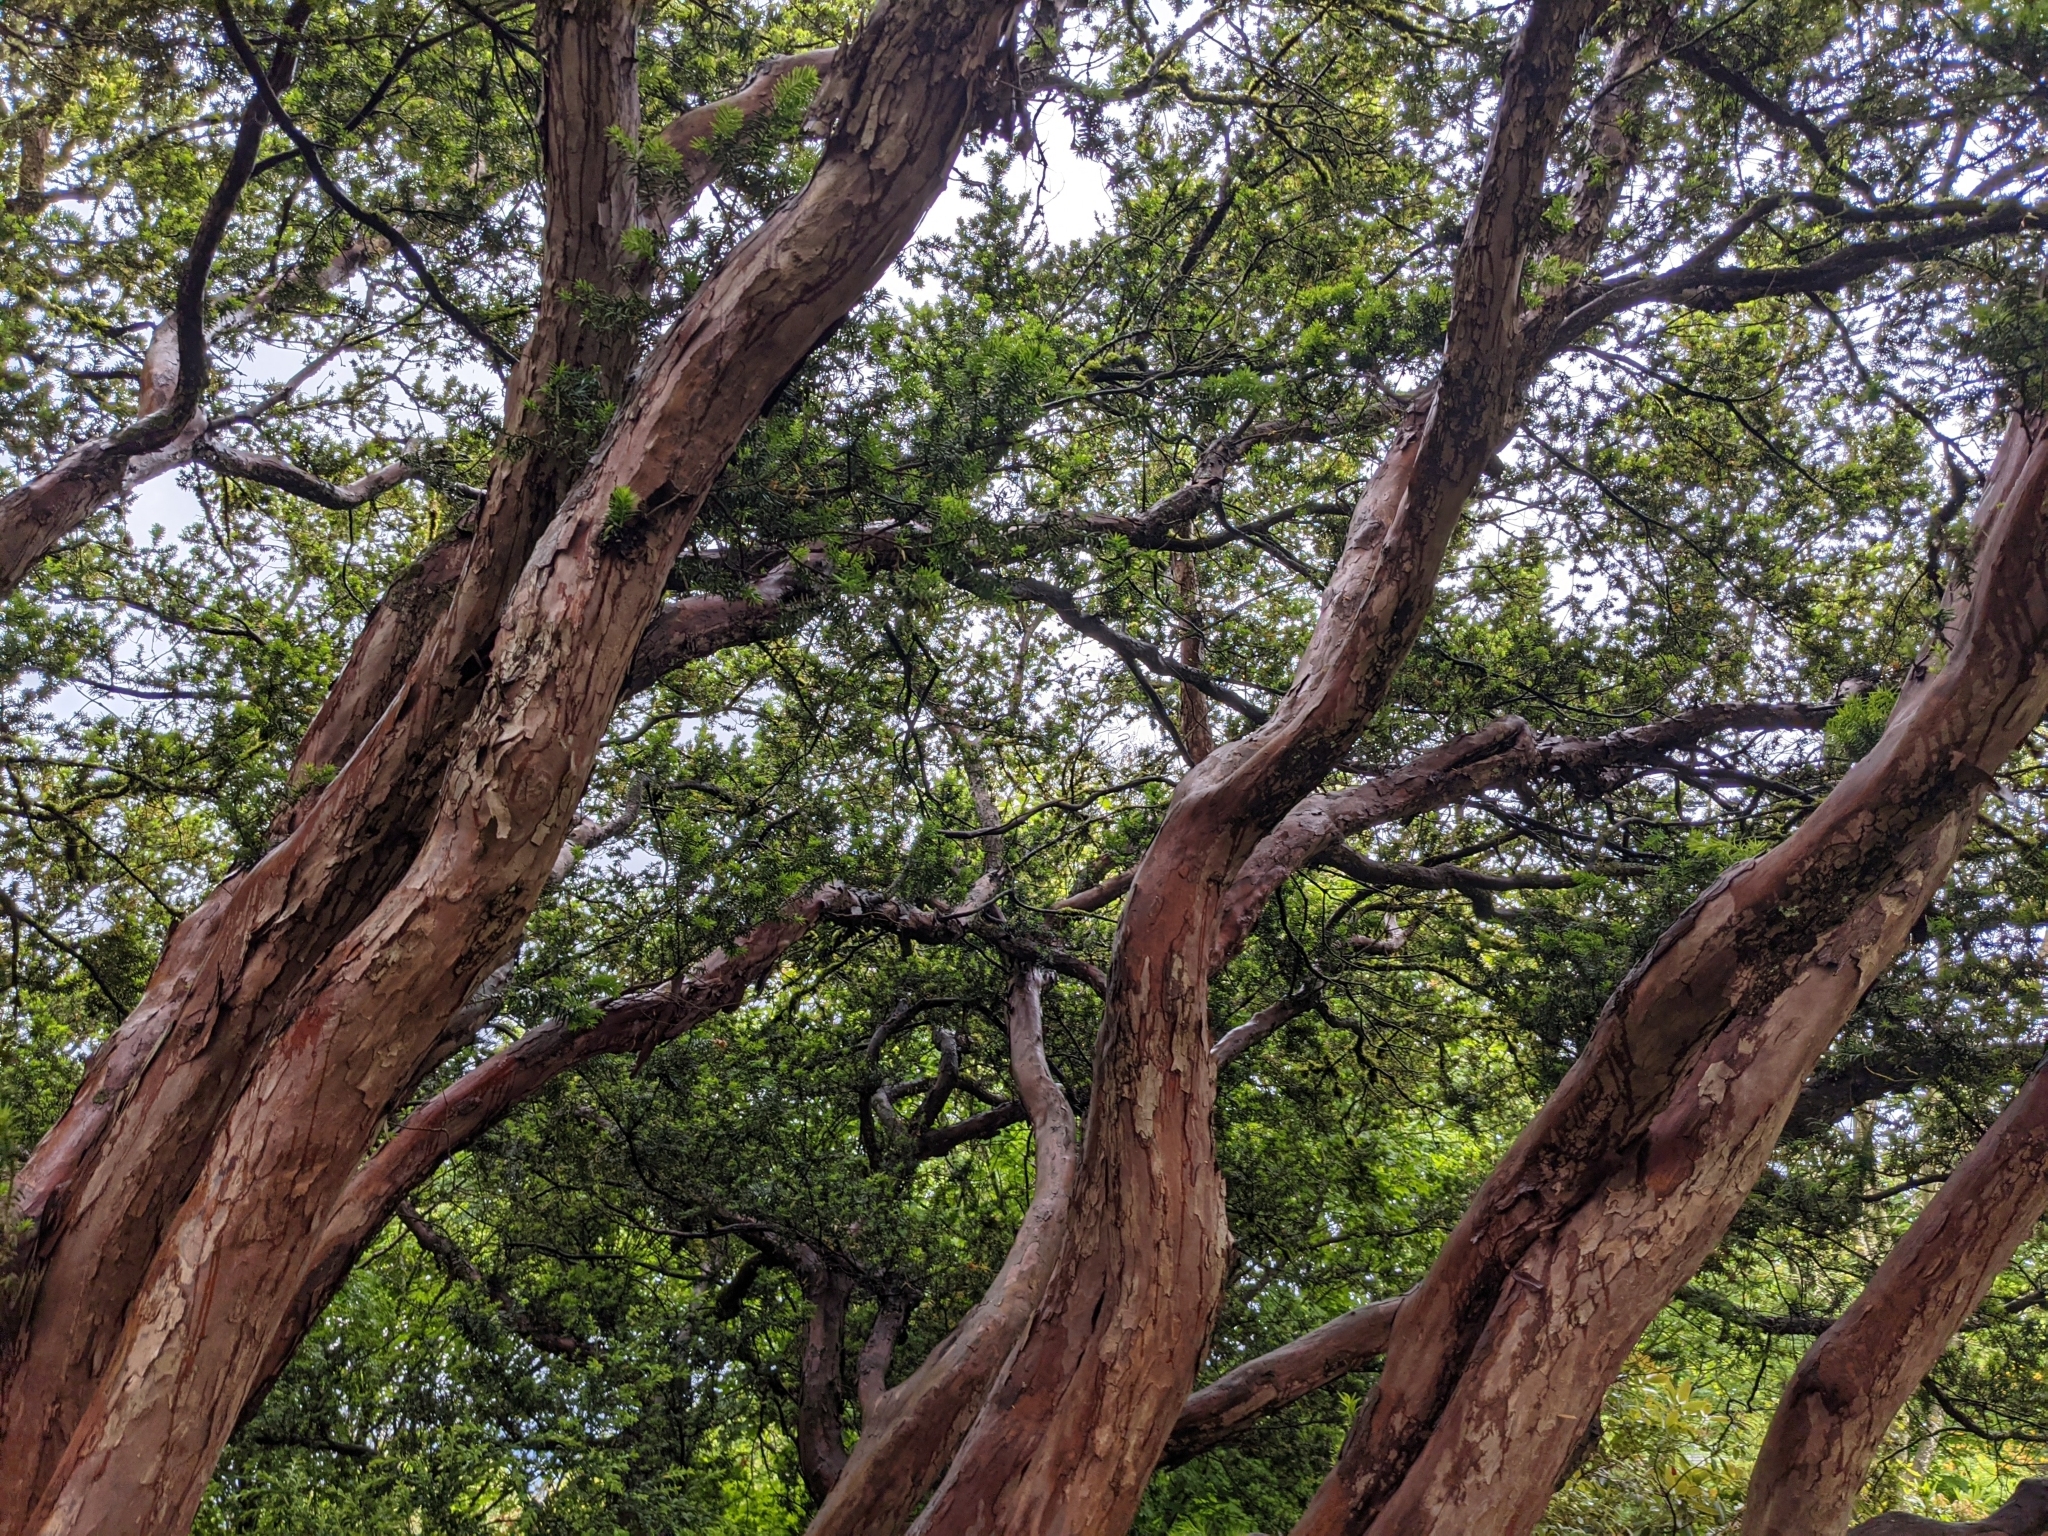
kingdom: Plantae
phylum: Tracheophyta
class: Pinopsida
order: Pinales
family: Taxaceae
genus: Taxus
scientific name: Taxus brevifolia
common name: Pacific yew
